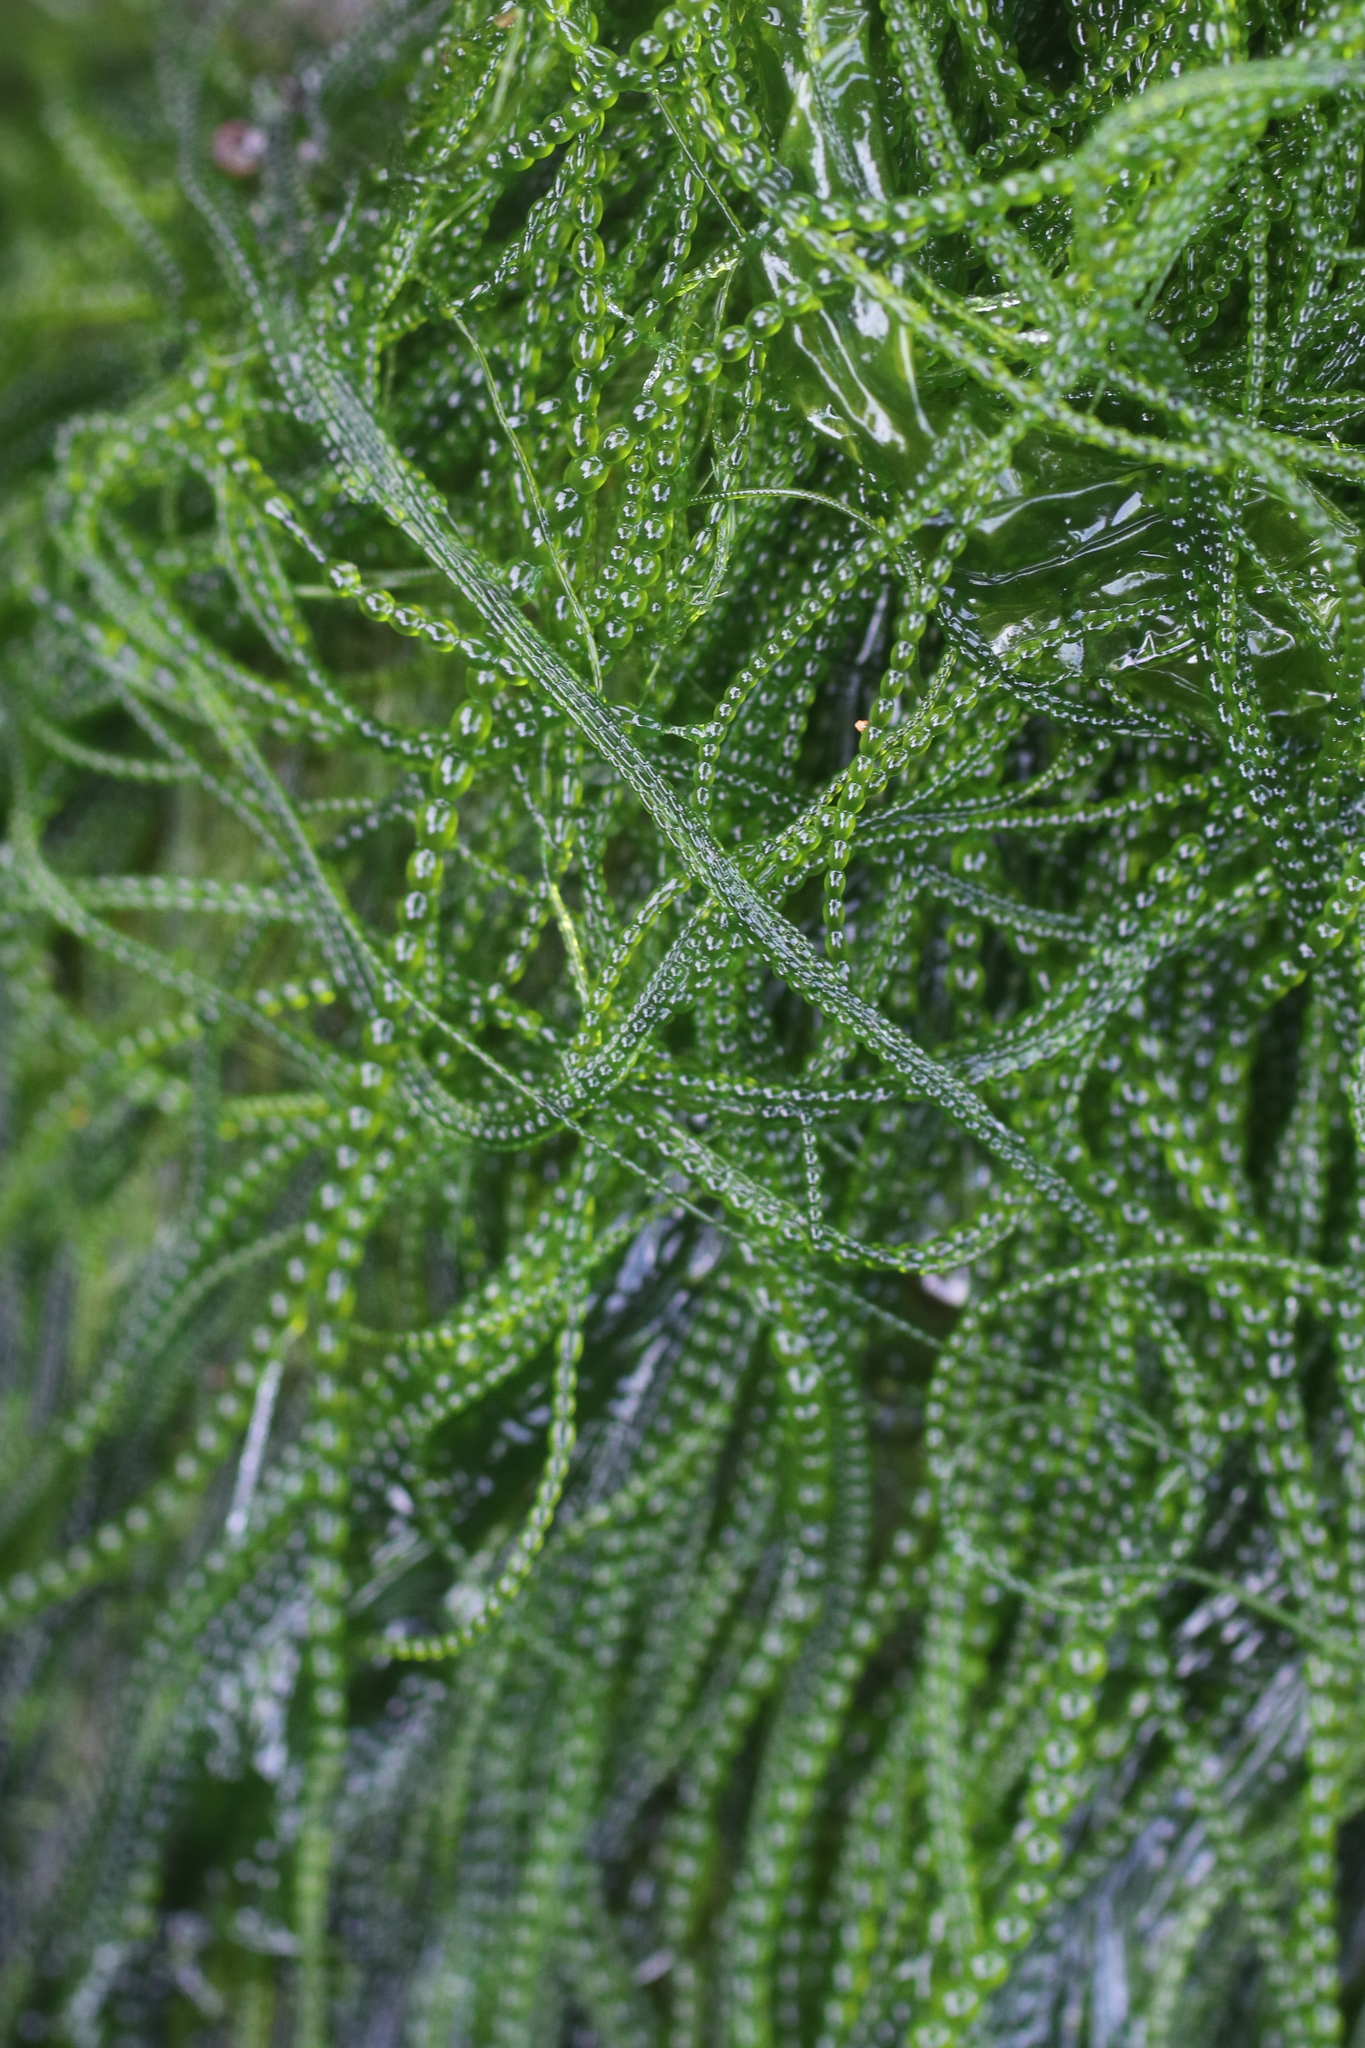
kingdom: Plantae
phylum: Chlorophyta
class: Ulvophyceae
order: Ulotrichales
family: Ulotrichaceae
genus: Urospora
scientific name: Urospora wormskioldii
